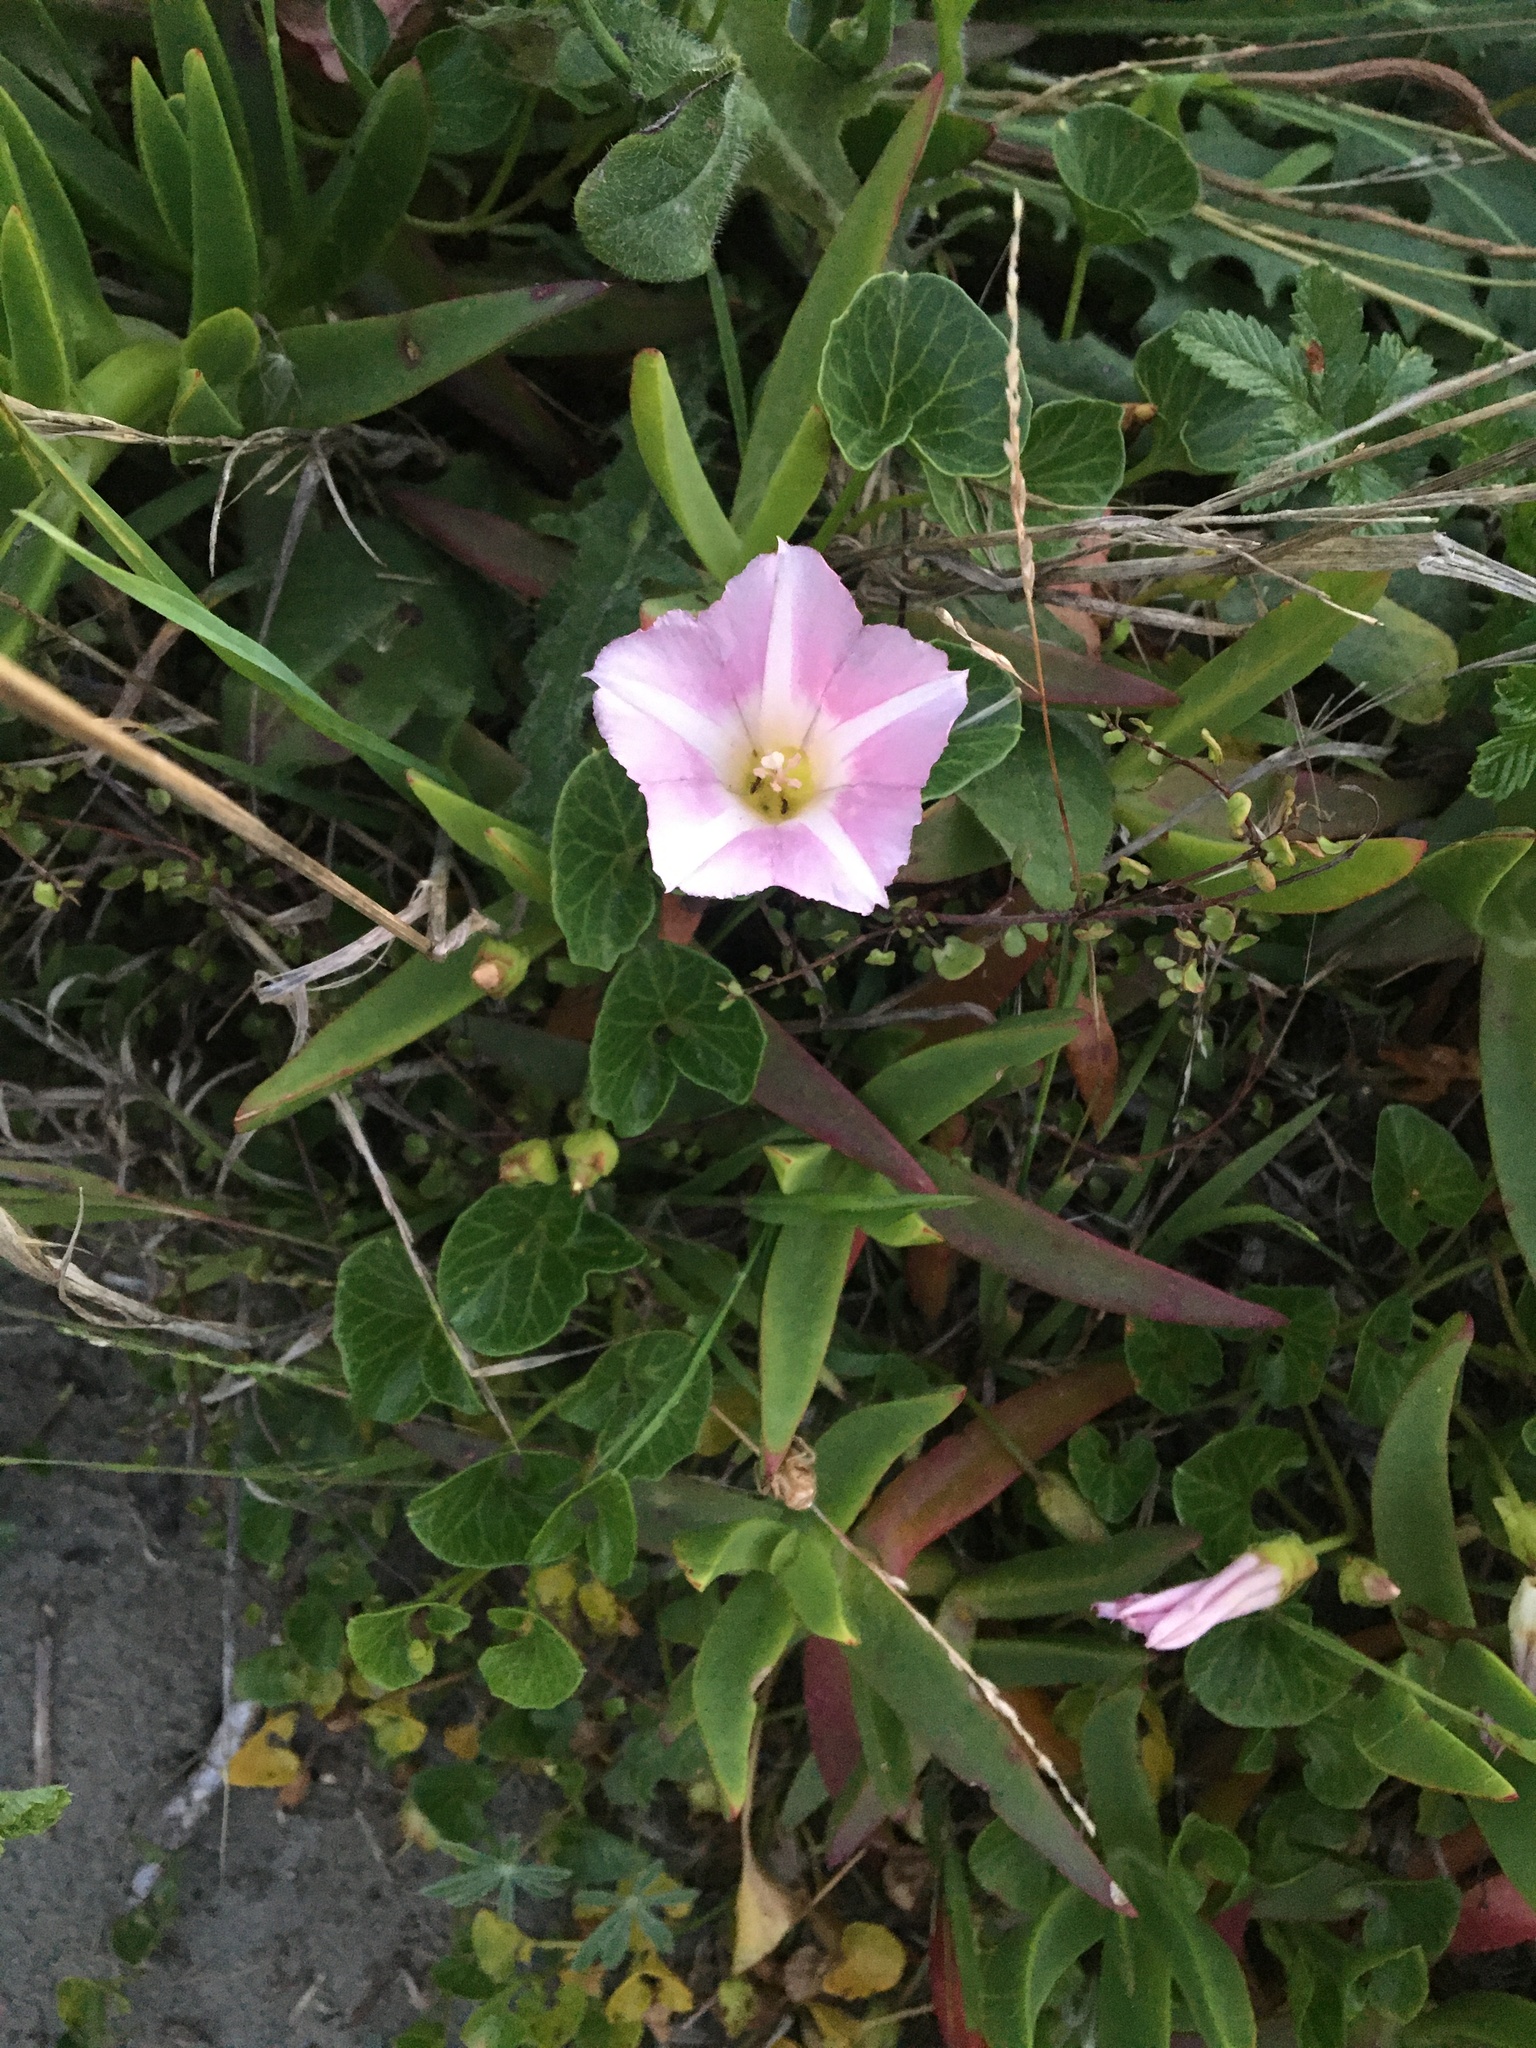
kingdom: Plantae
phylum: Tracheophyta
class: Magnoliopsida
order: Solanales
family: Convolvulaceae
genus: Calystegia
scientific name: Calystegia soldanella
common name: Sea bindweed
